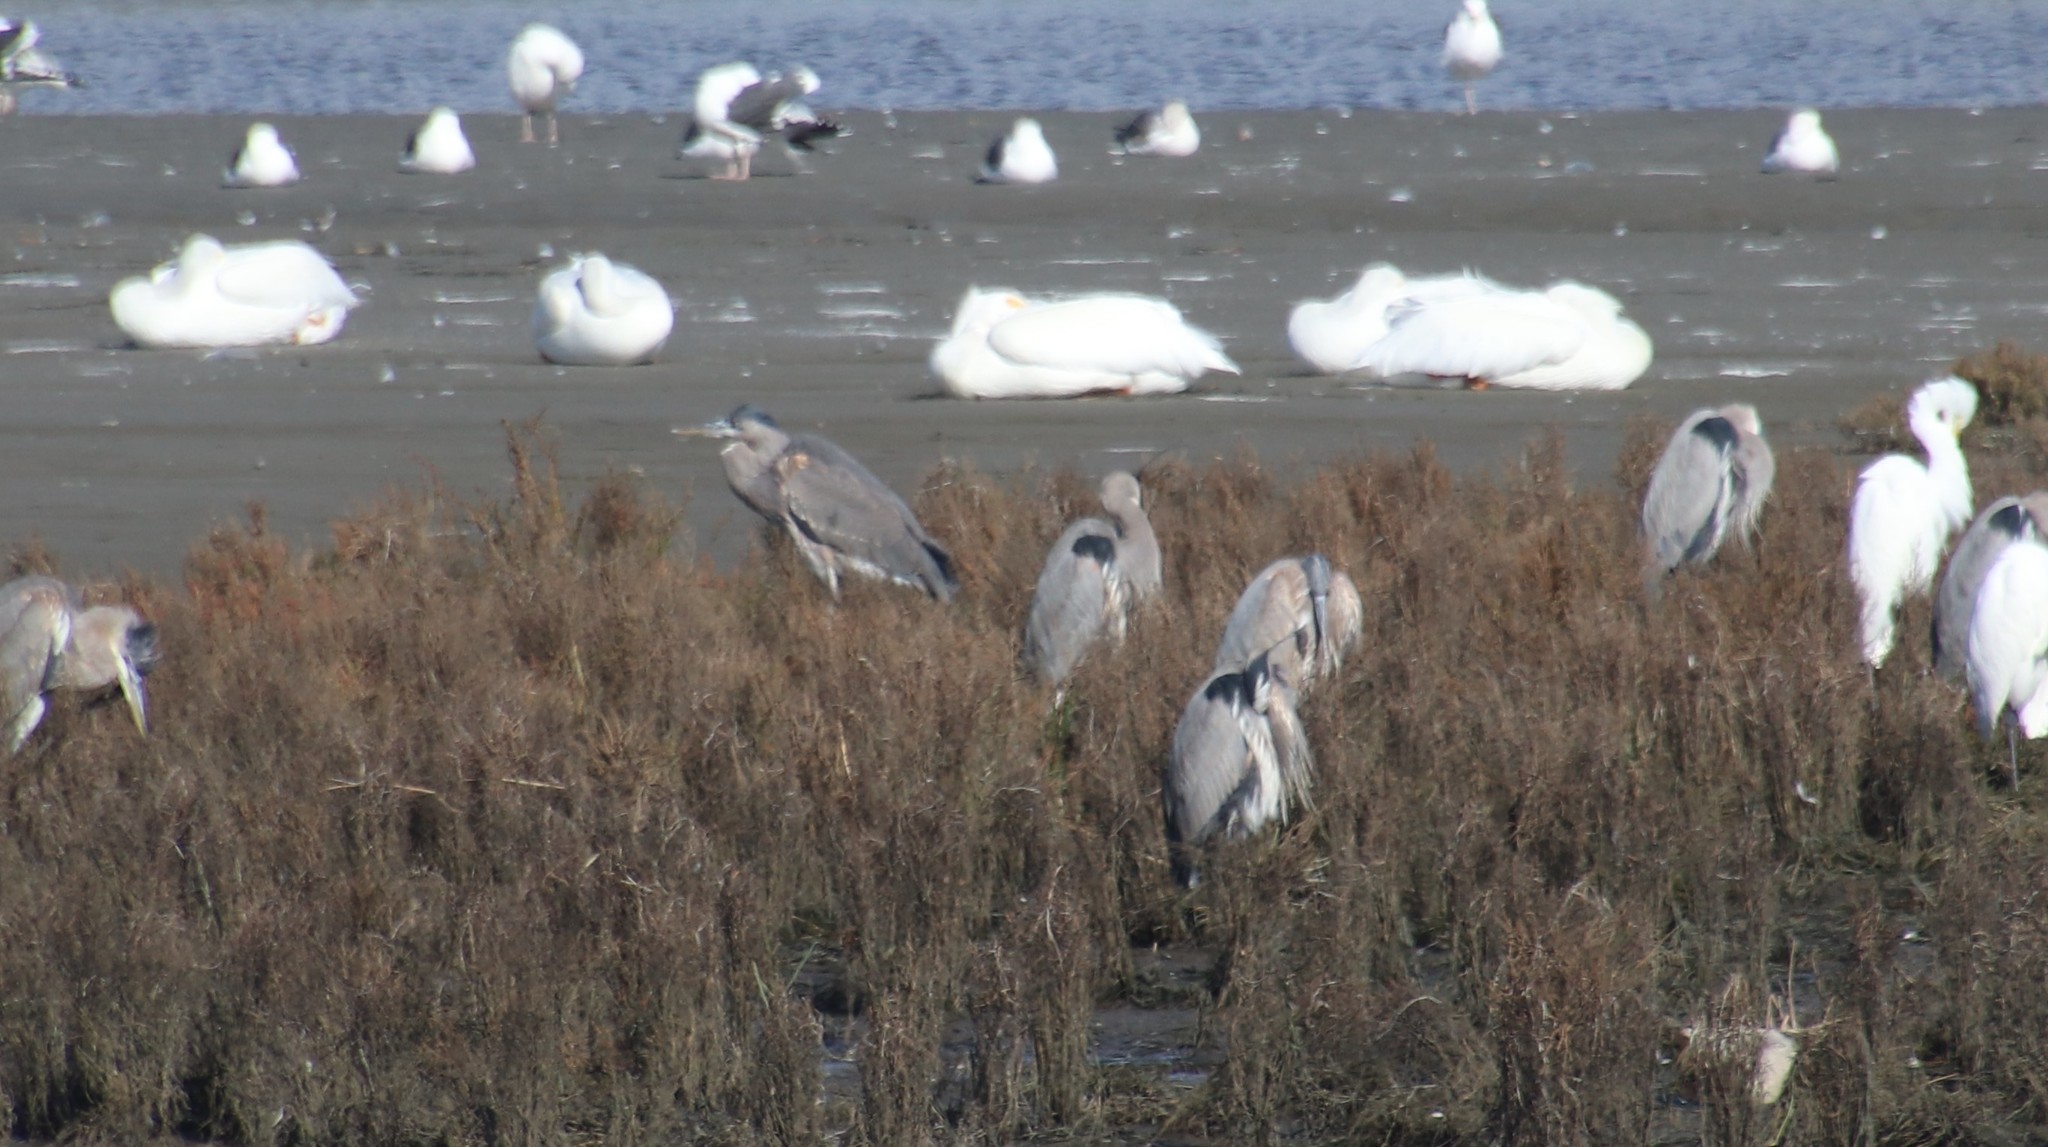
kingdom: Animalia
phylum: Chordata
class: Aves
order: Pelecaniformes
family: Ardeidae
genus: Ardea
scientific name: Ardea herodias
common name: Great blue heron
